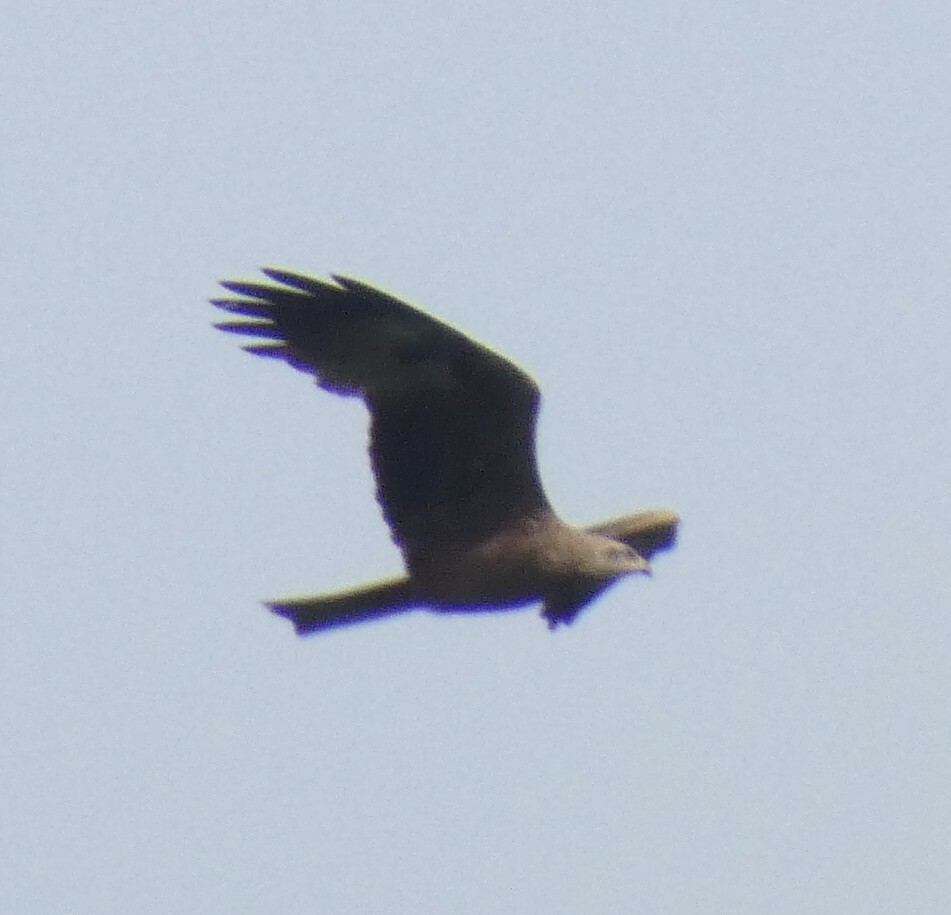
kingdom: Animalia
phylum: Chordata
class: Aves
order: Accipitriformes
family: Accipitridae
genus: Milvus
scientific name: Milvus migrans
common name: Black kite
